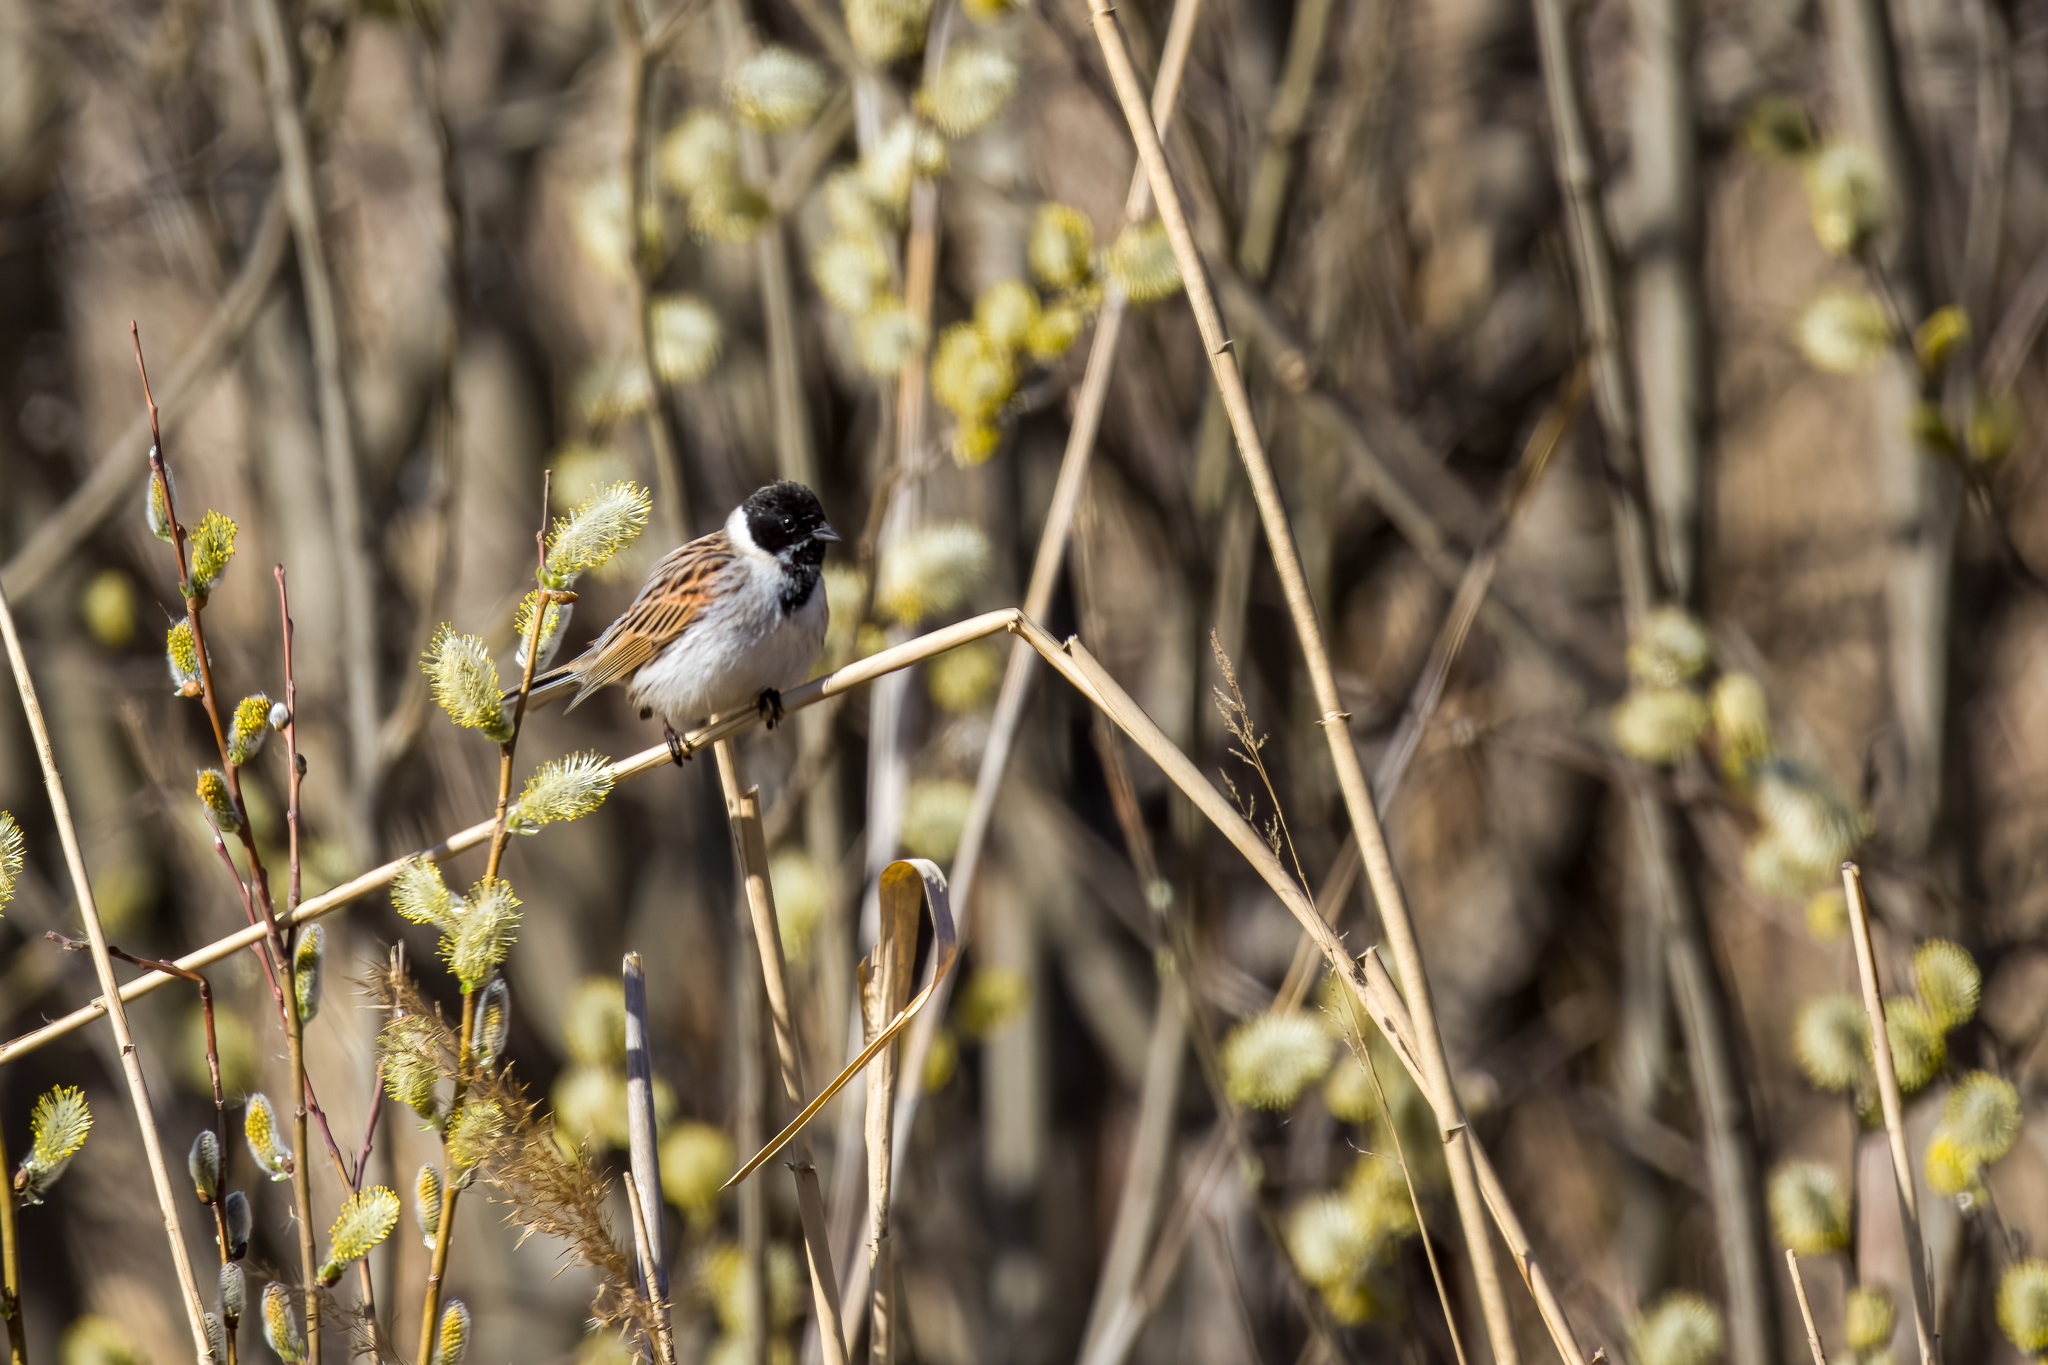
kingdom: Animalia
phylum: Chordata
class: Aves
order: Passeriformes
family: Emberizidae
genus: Emberiza
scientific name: Emberiza schoeniclus
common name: Reed bunting
